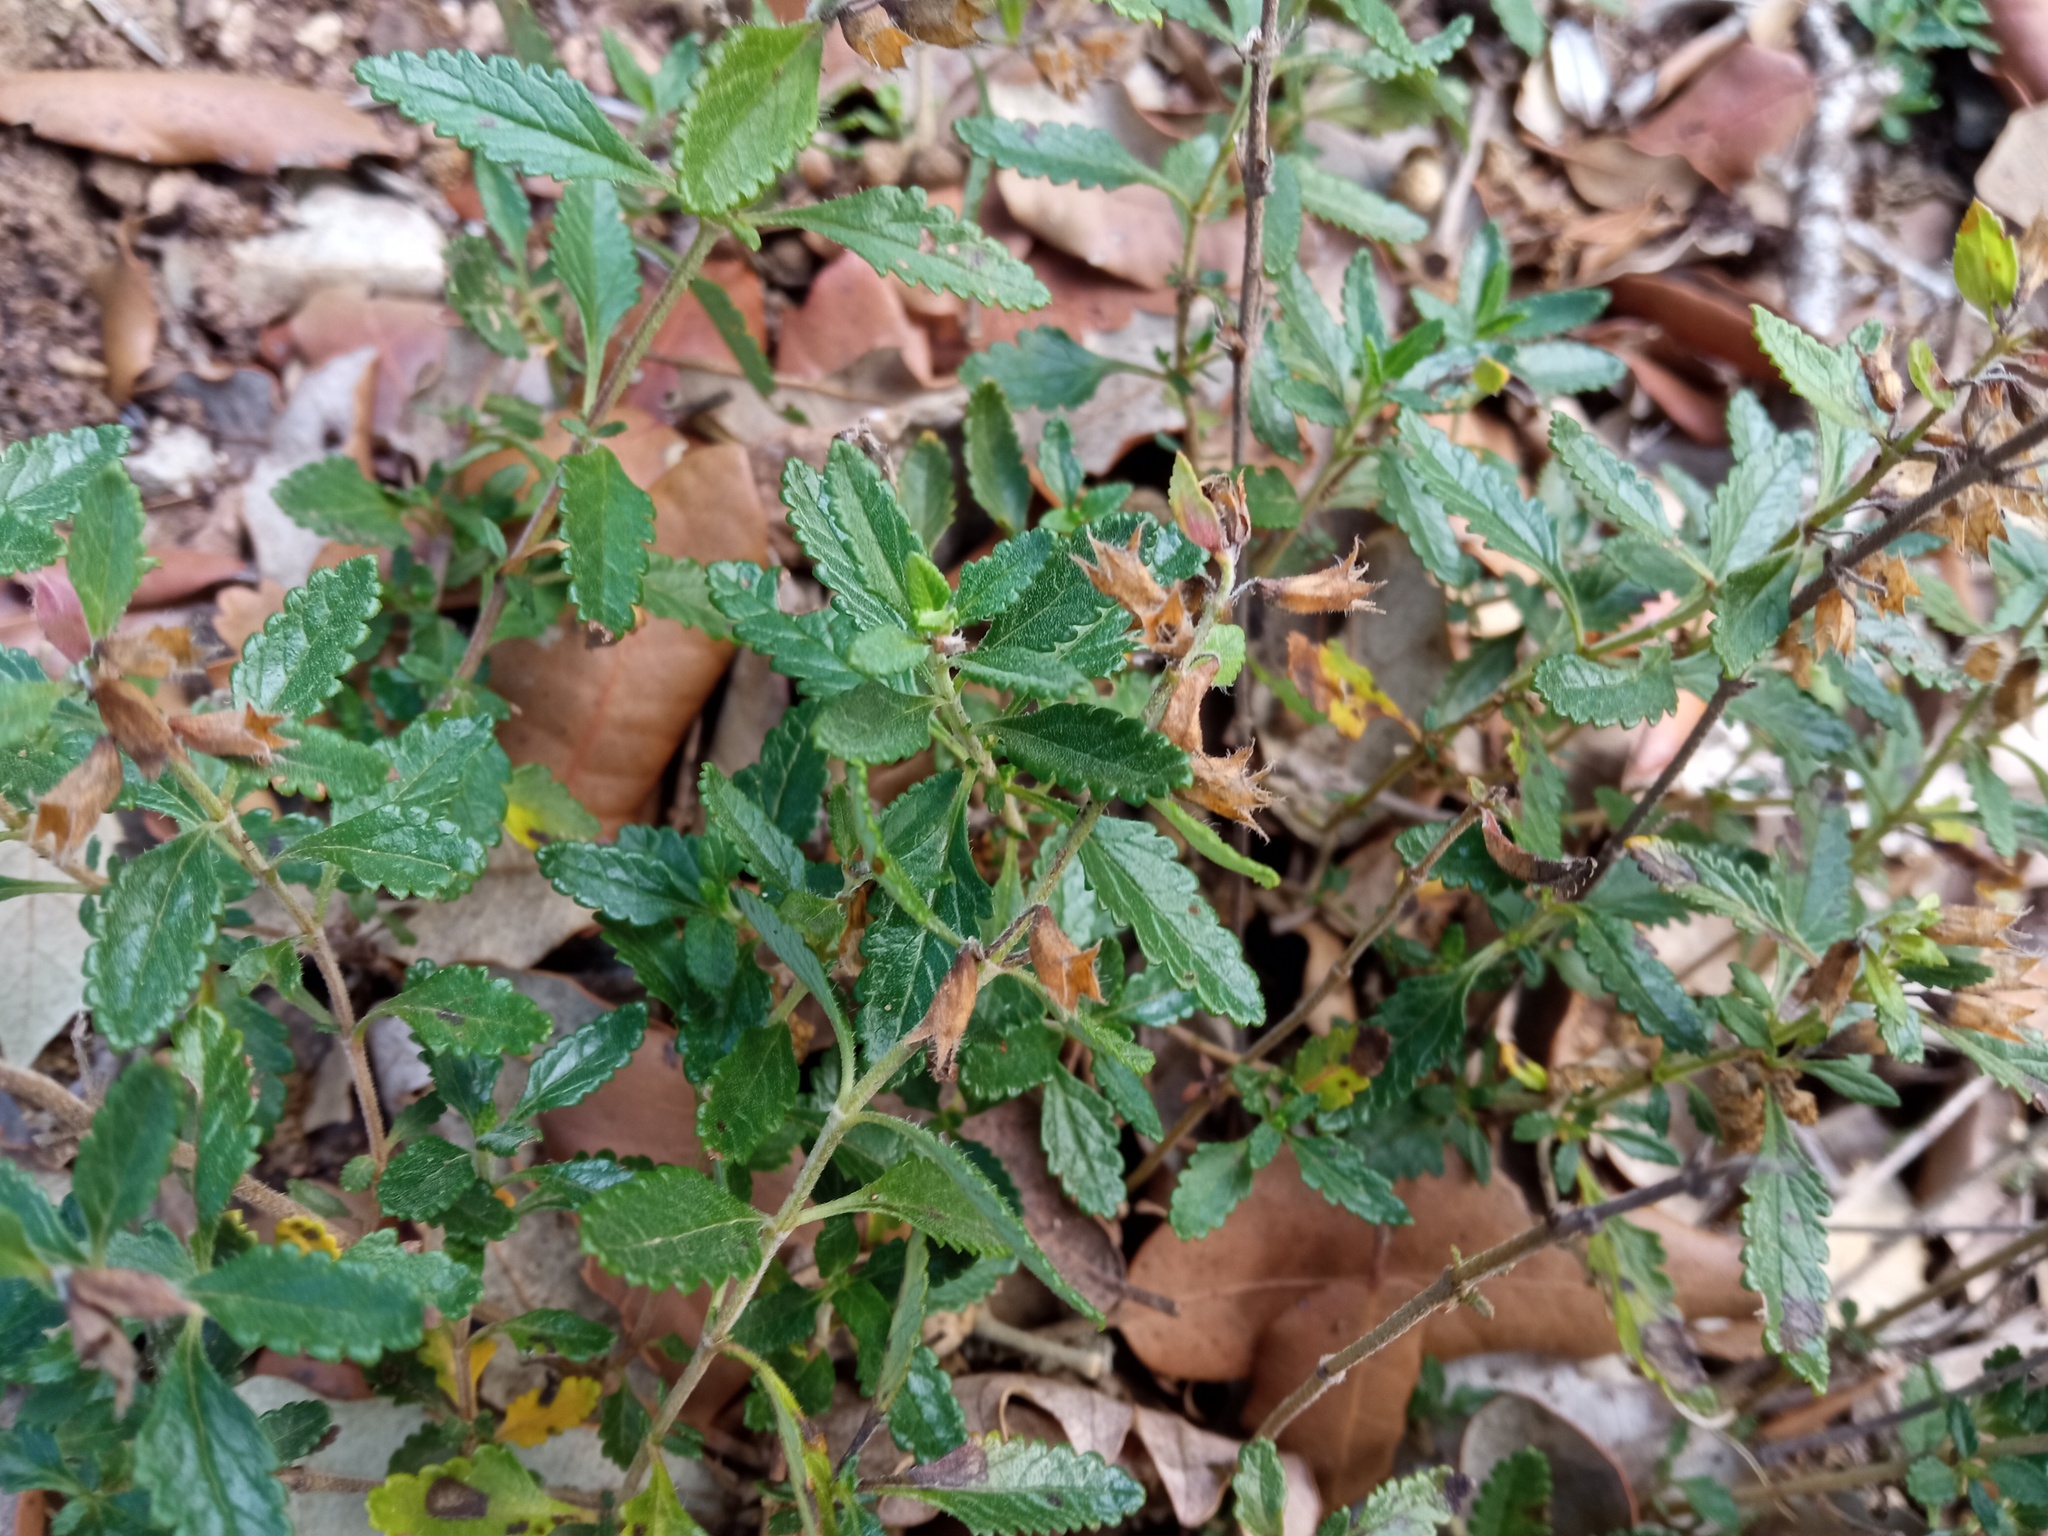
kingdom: Plantae
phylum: Tracheophyta
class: Magnoliopsida
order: Lamiales
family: Lamiaceae
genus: Teucrium
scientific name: Teucrium chamaedrys
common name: Wall germander
